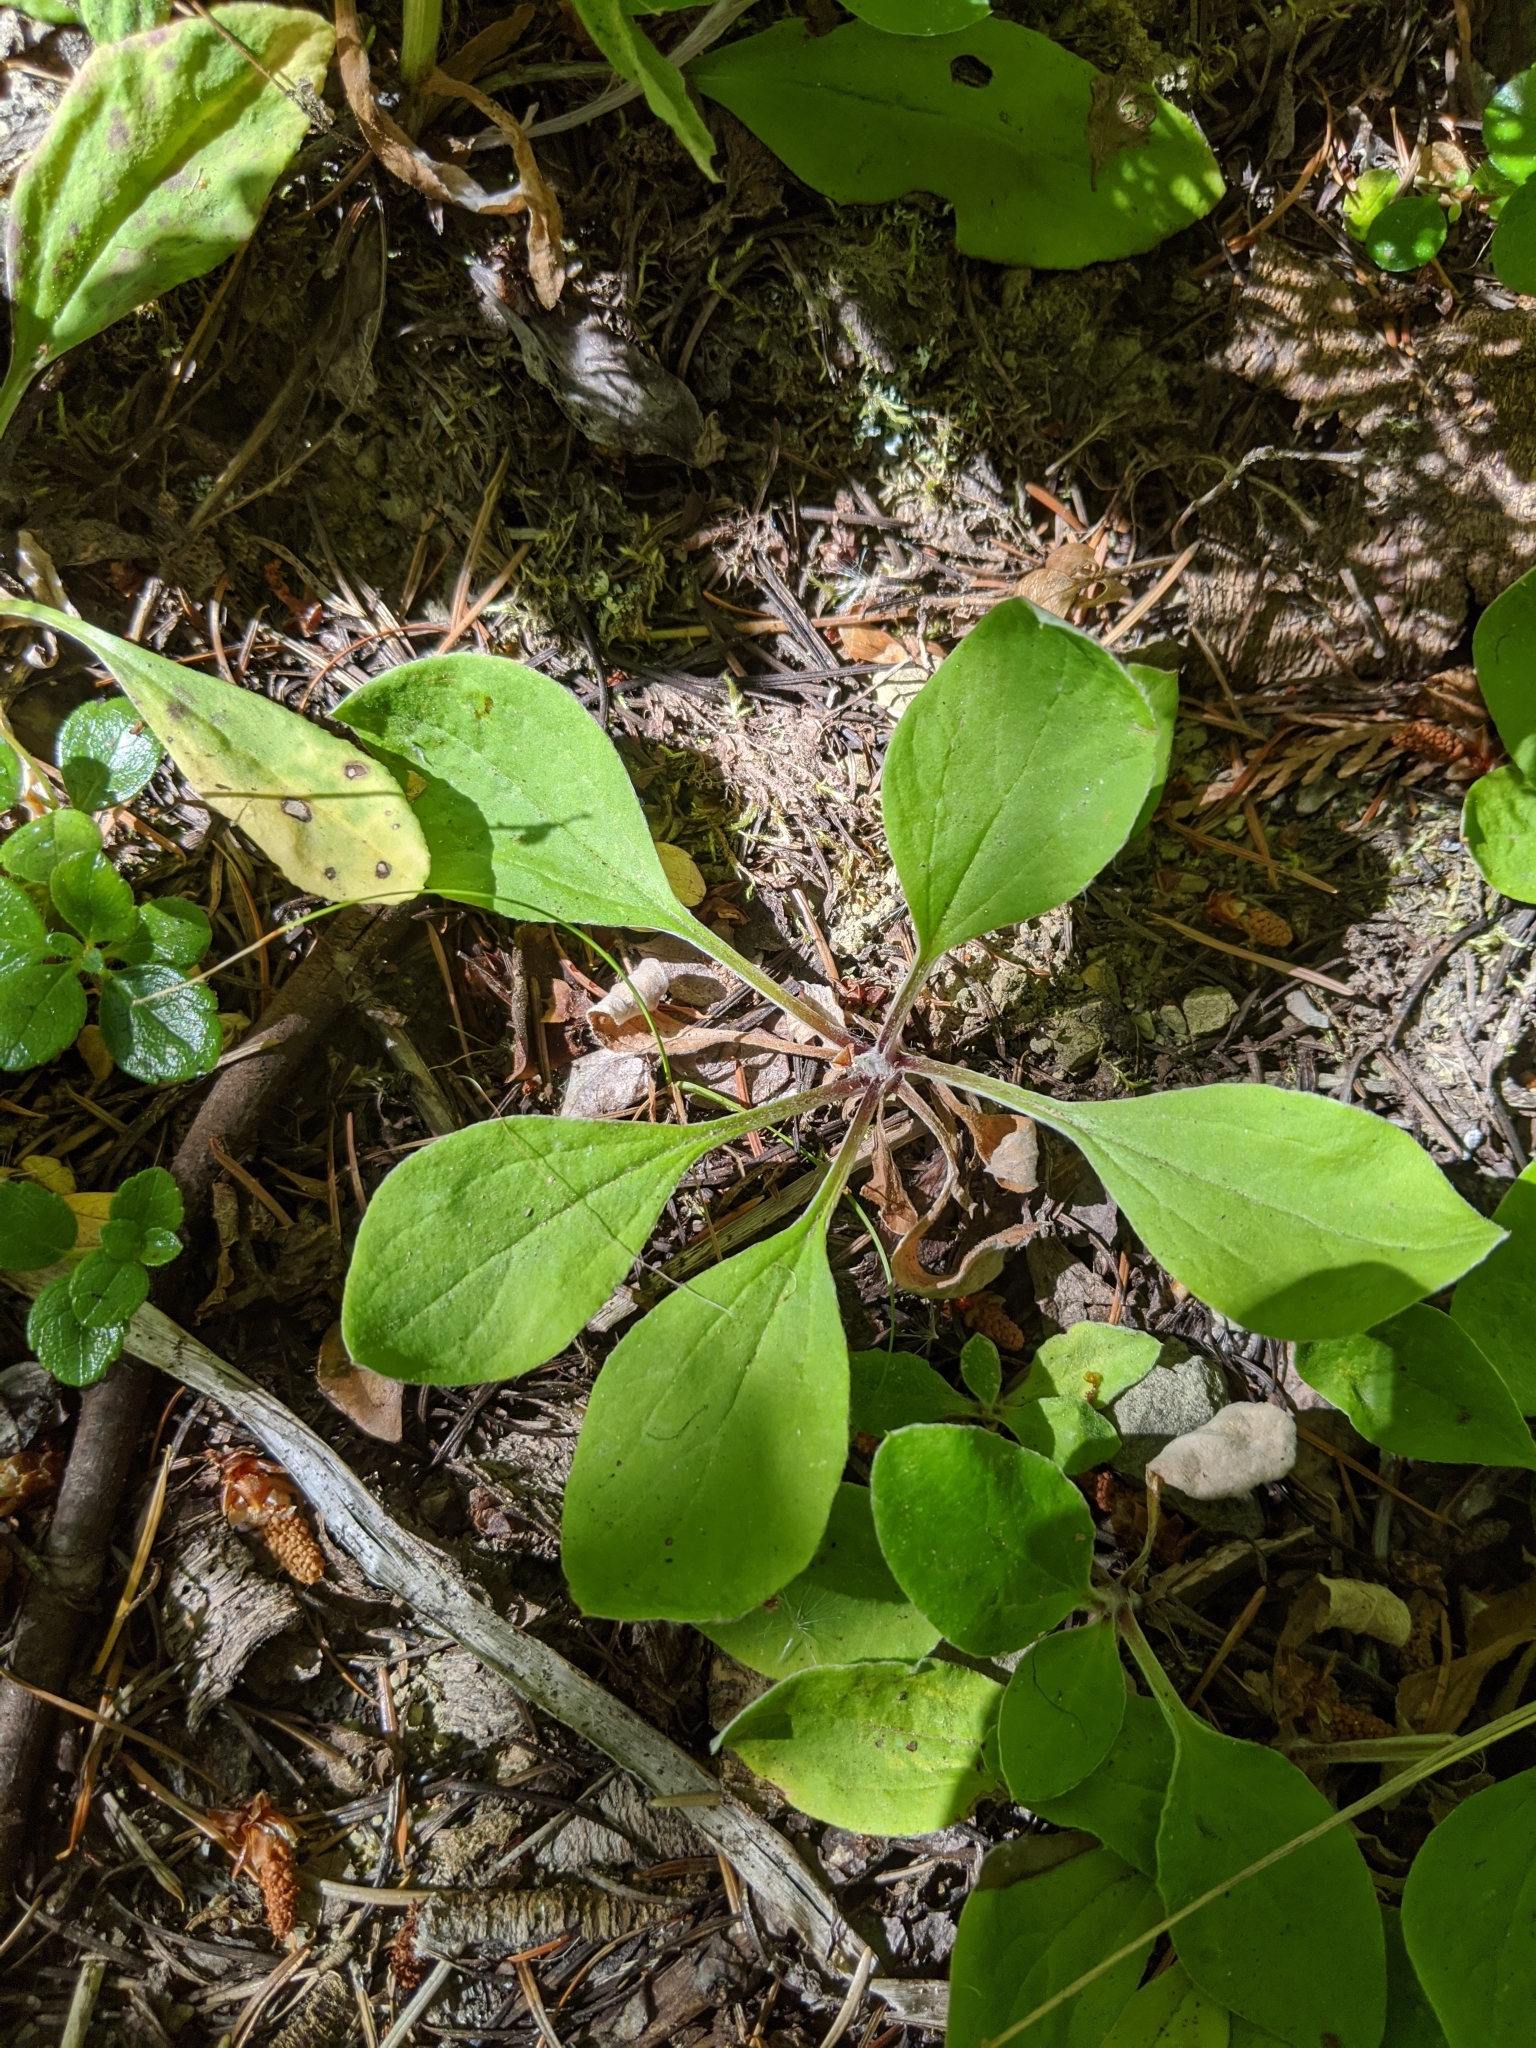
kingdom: Plantae
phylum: Tracheophyta
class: Magnoliopsida
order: Asterales
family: Asteraceae
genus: Antennaria
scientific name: Antennaria racemosa
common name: Racemose pussytoes
